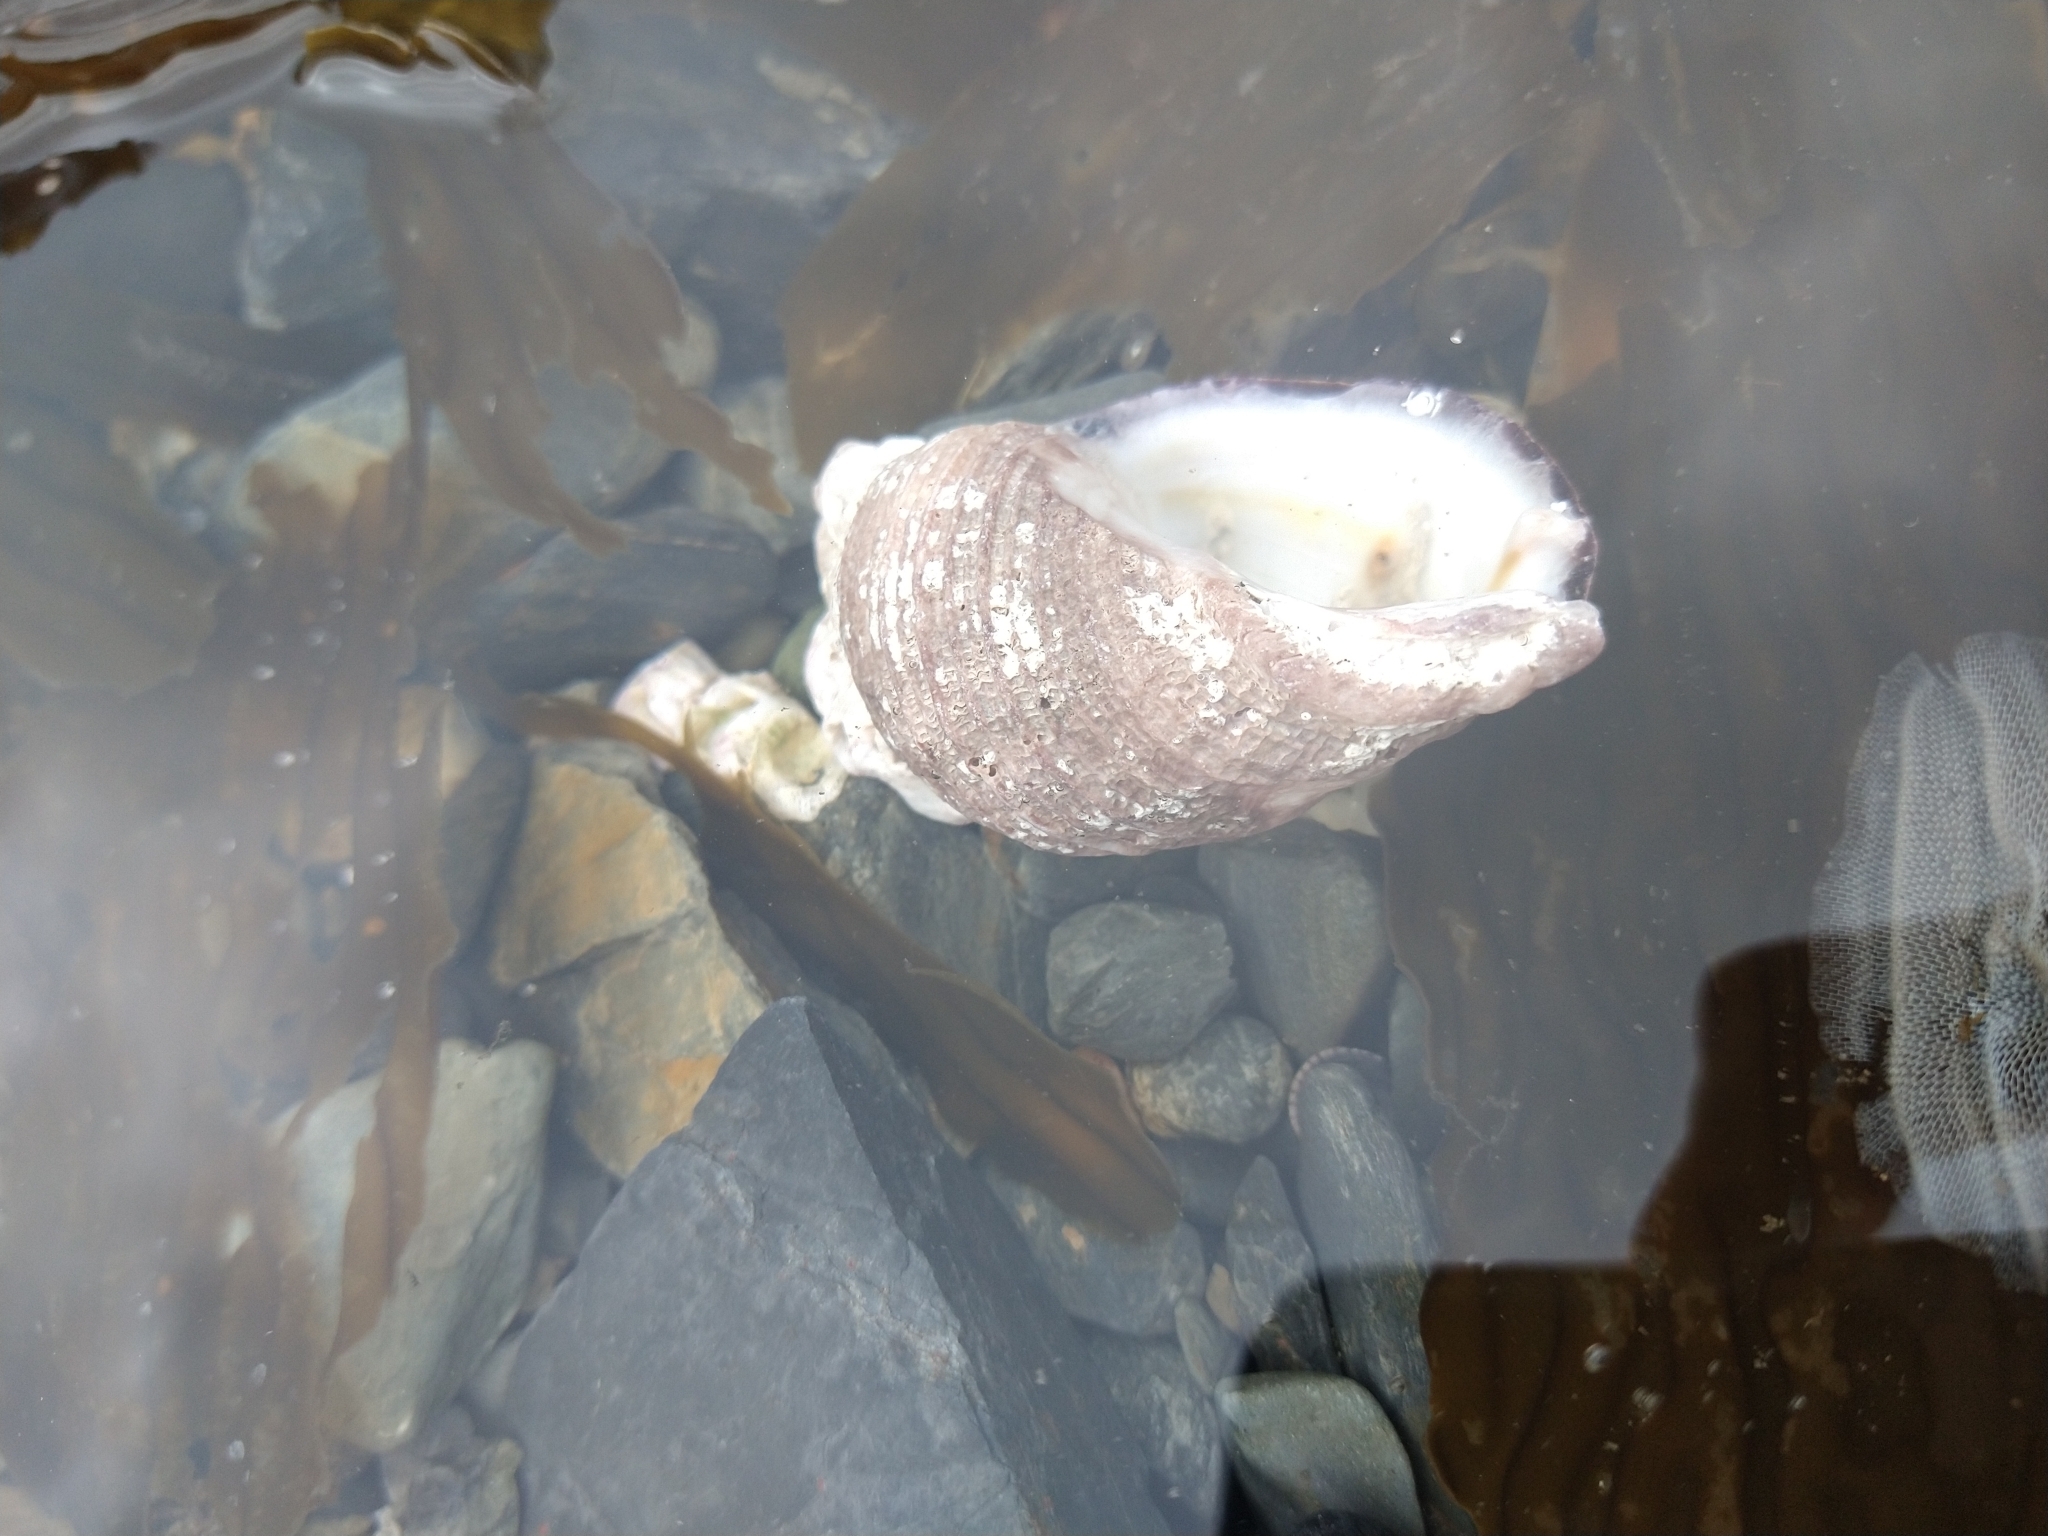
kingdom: Animalia
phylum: Mollusca
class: Gastropoda
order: Neogastropoda
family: Muricidae
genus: Acanthina
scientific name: Acanthina monodon
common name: One-toothed thais
